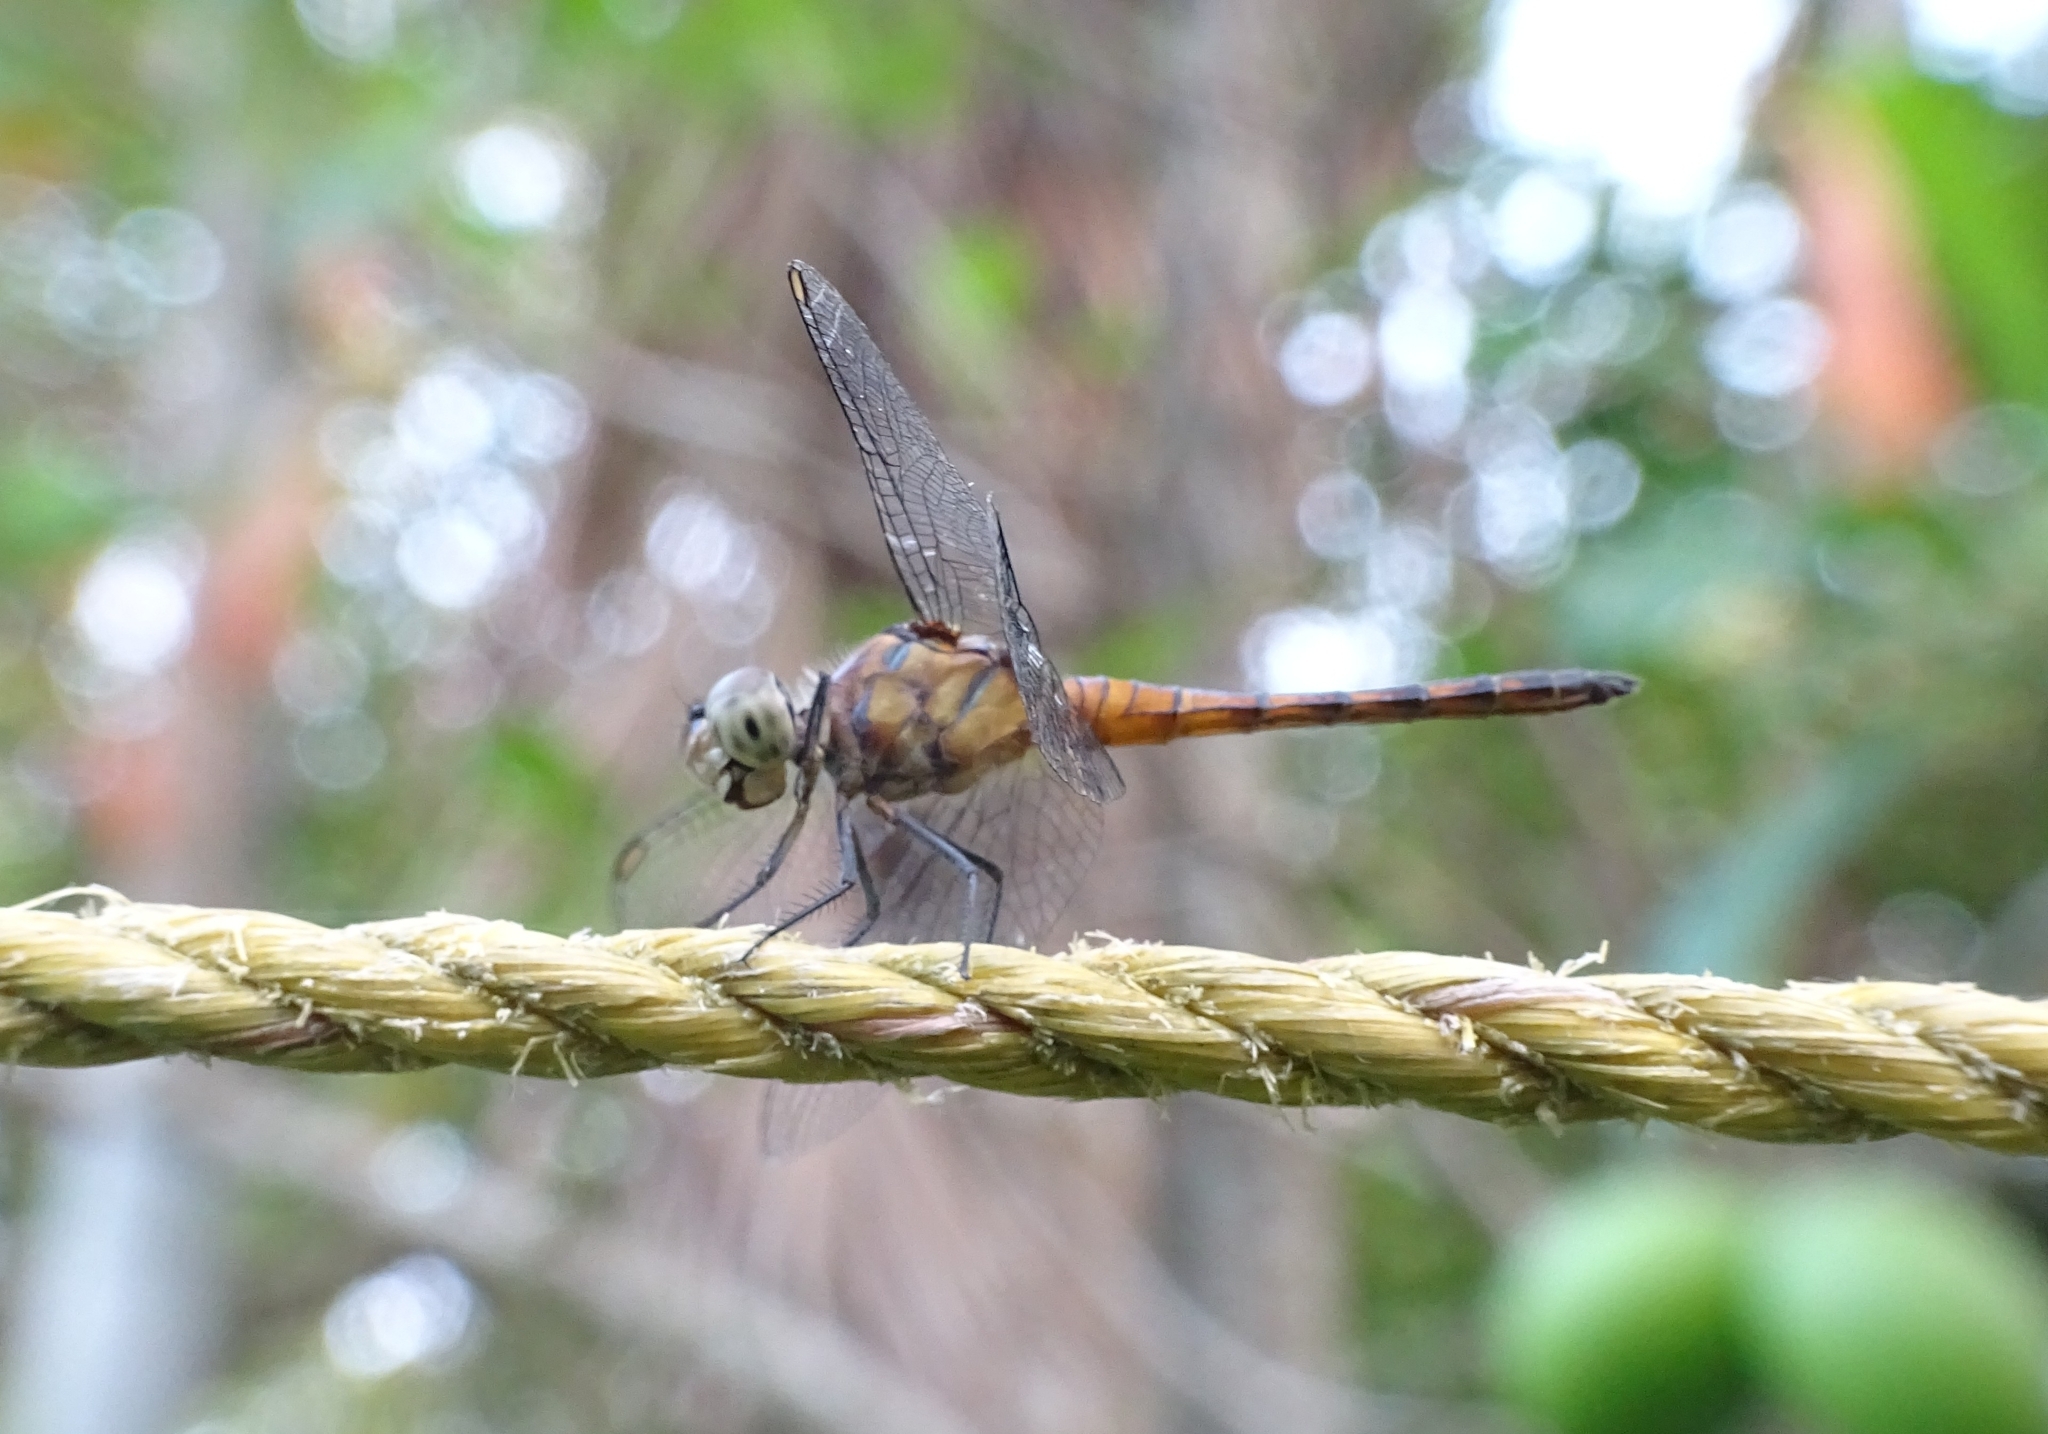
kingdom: Animalia
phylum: Arthropoda
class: Insecta
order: Odonata
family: Libellulidae
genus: Brachydiplax
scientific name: Brachydiplax chalybea
